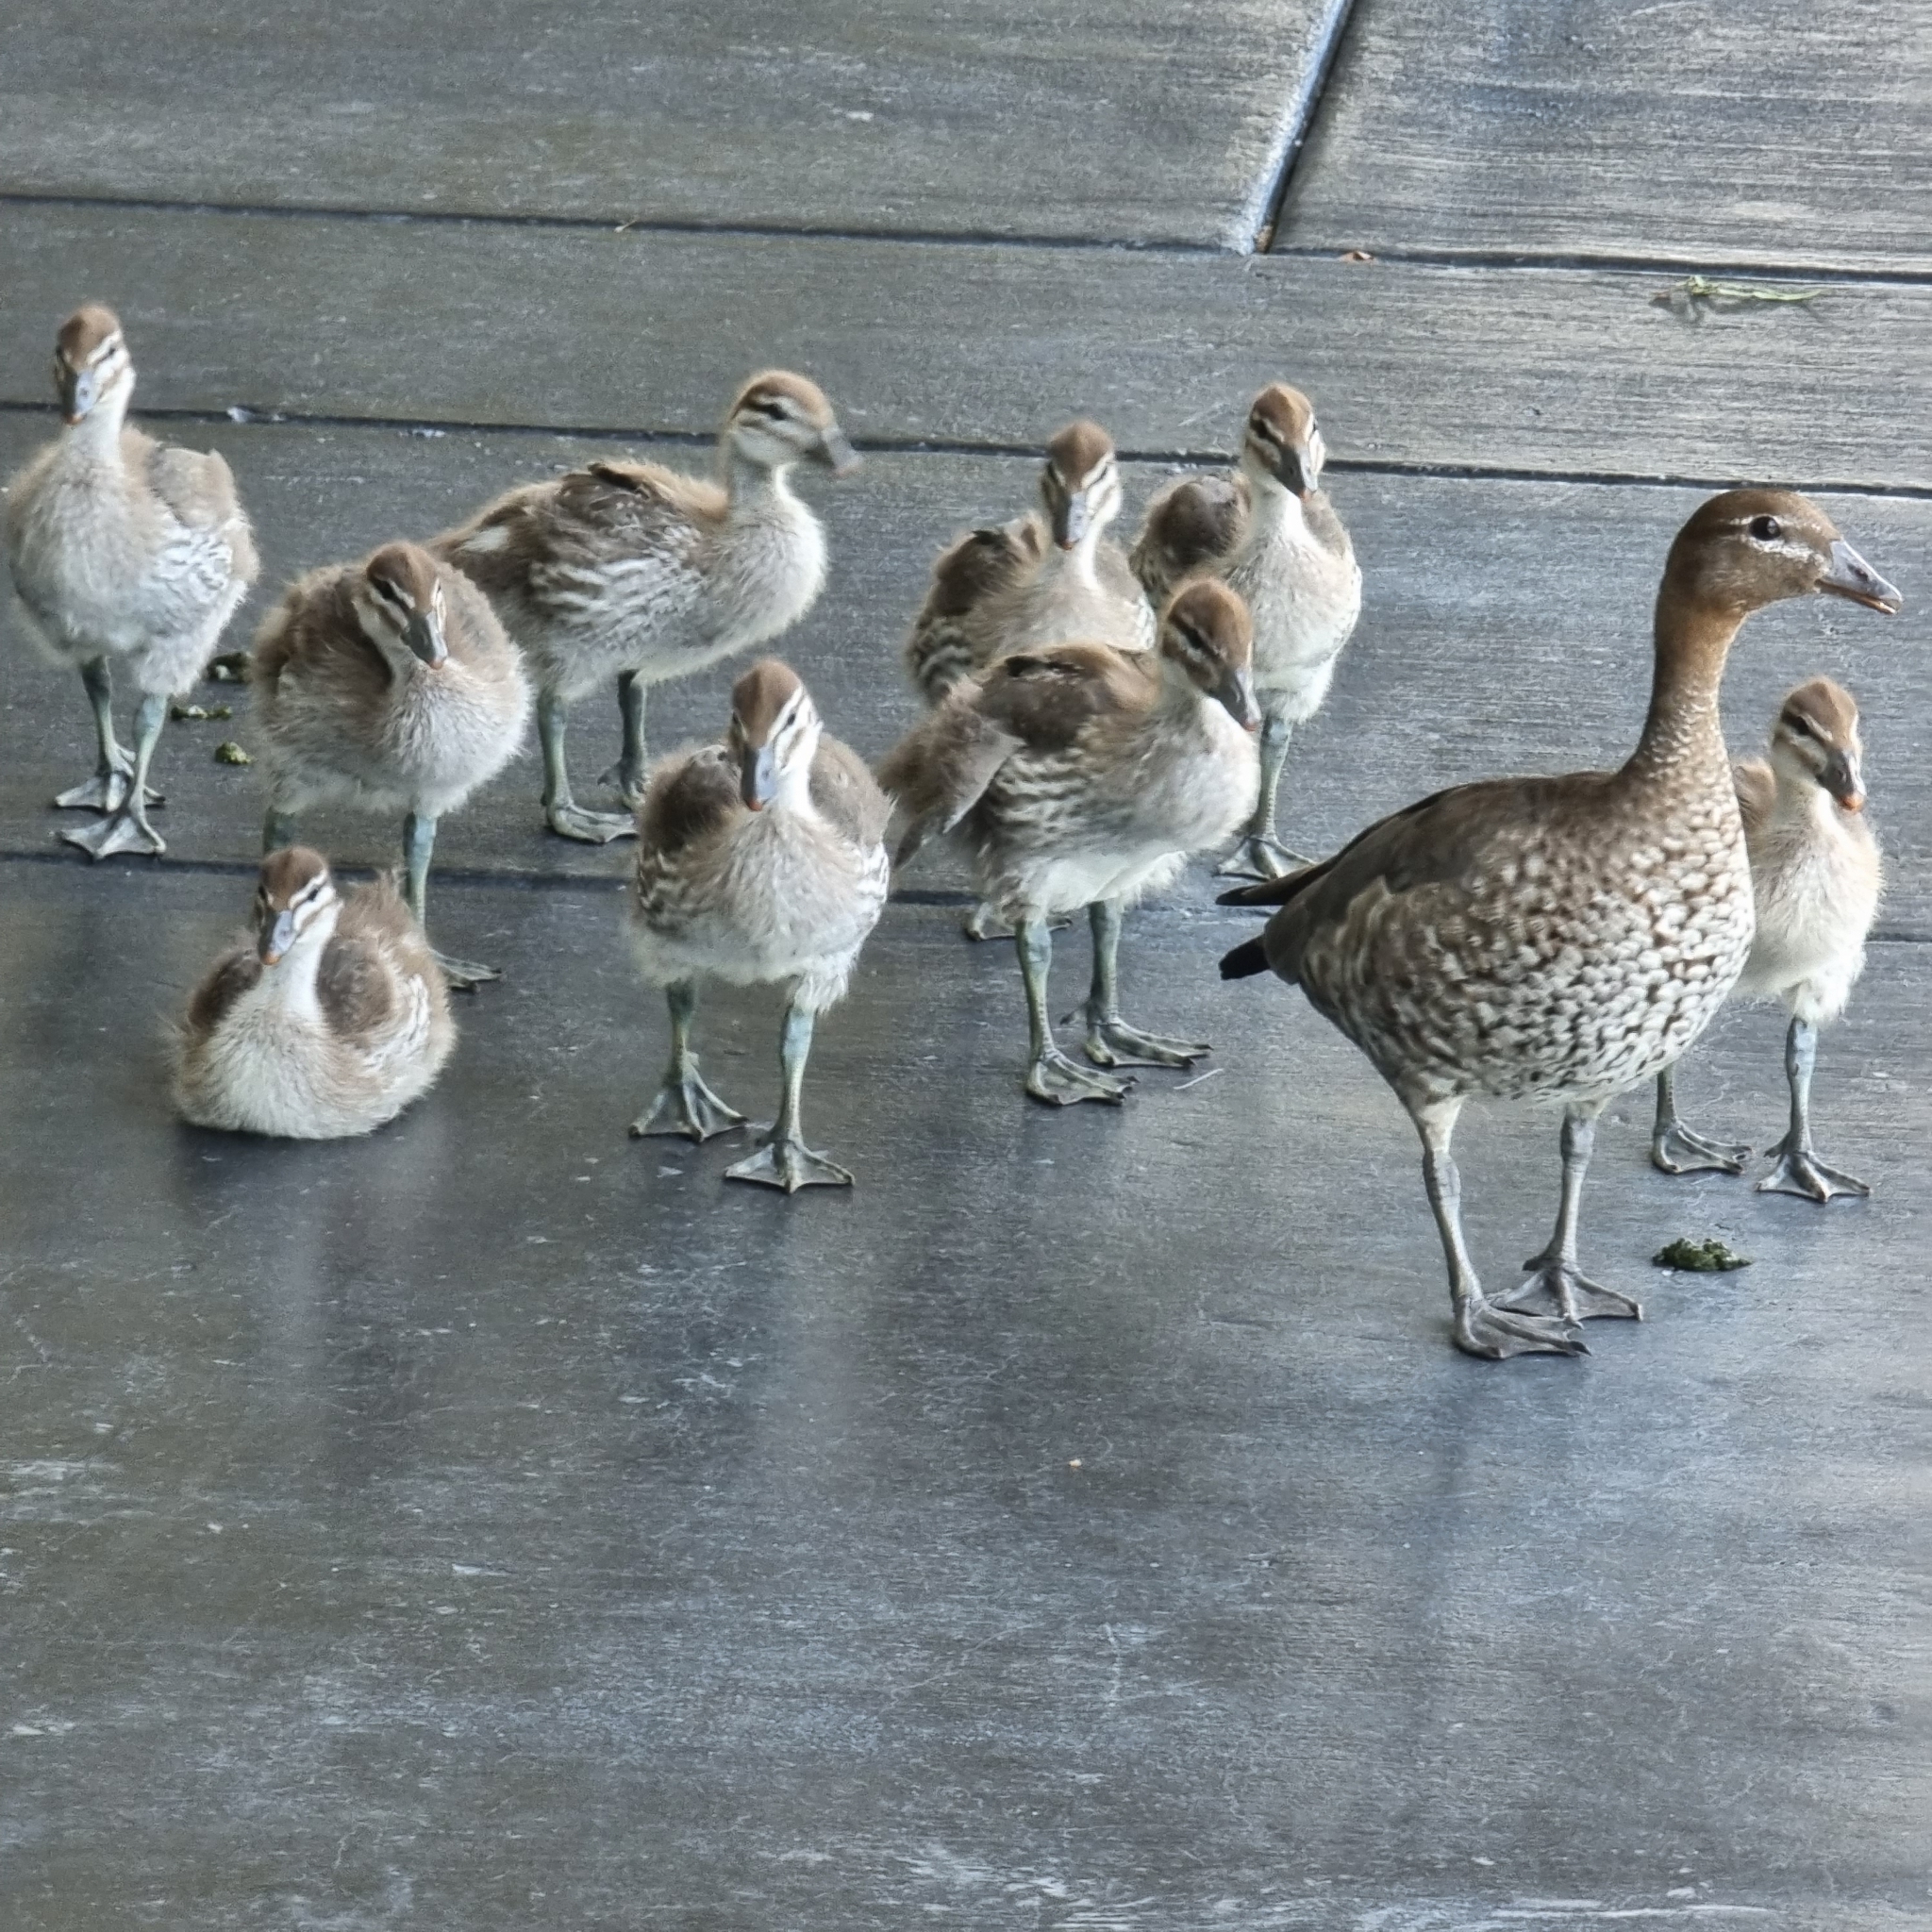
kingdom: Animalia
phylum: Chordata
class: Aves
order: Anseriformes
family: Anatidae
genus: Chenonetta
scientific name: Chenonetta jubata
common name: Maned duck
